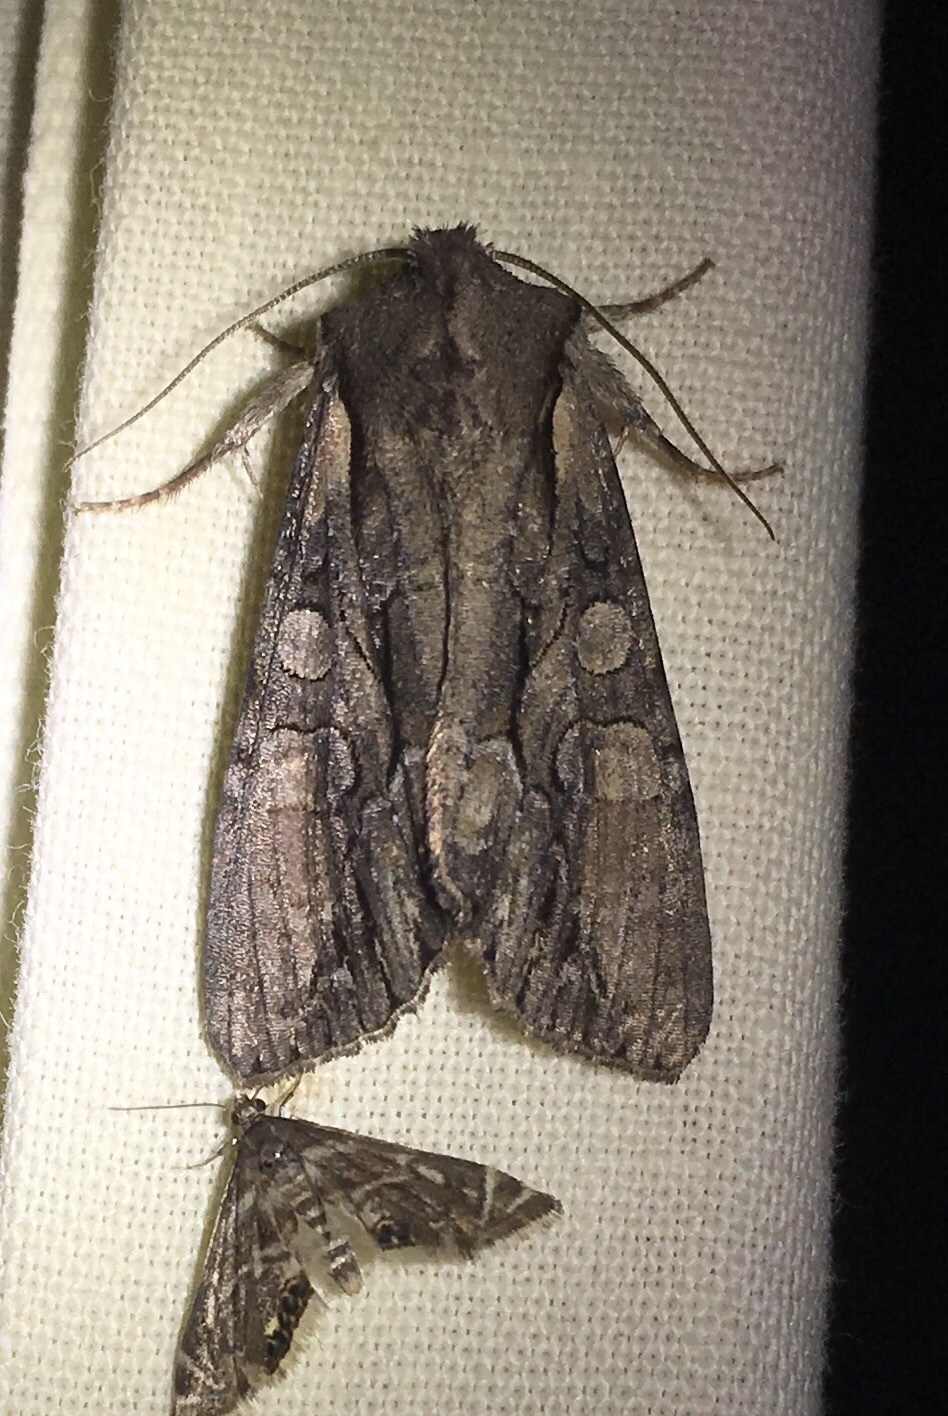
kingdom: Animalia
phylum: Arthropoda
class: Insecta
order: Lepidoptera
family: Noctuidae
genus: Lacanobia
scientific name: Lacanobia subjuncta
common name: Speckled cutworm moth
